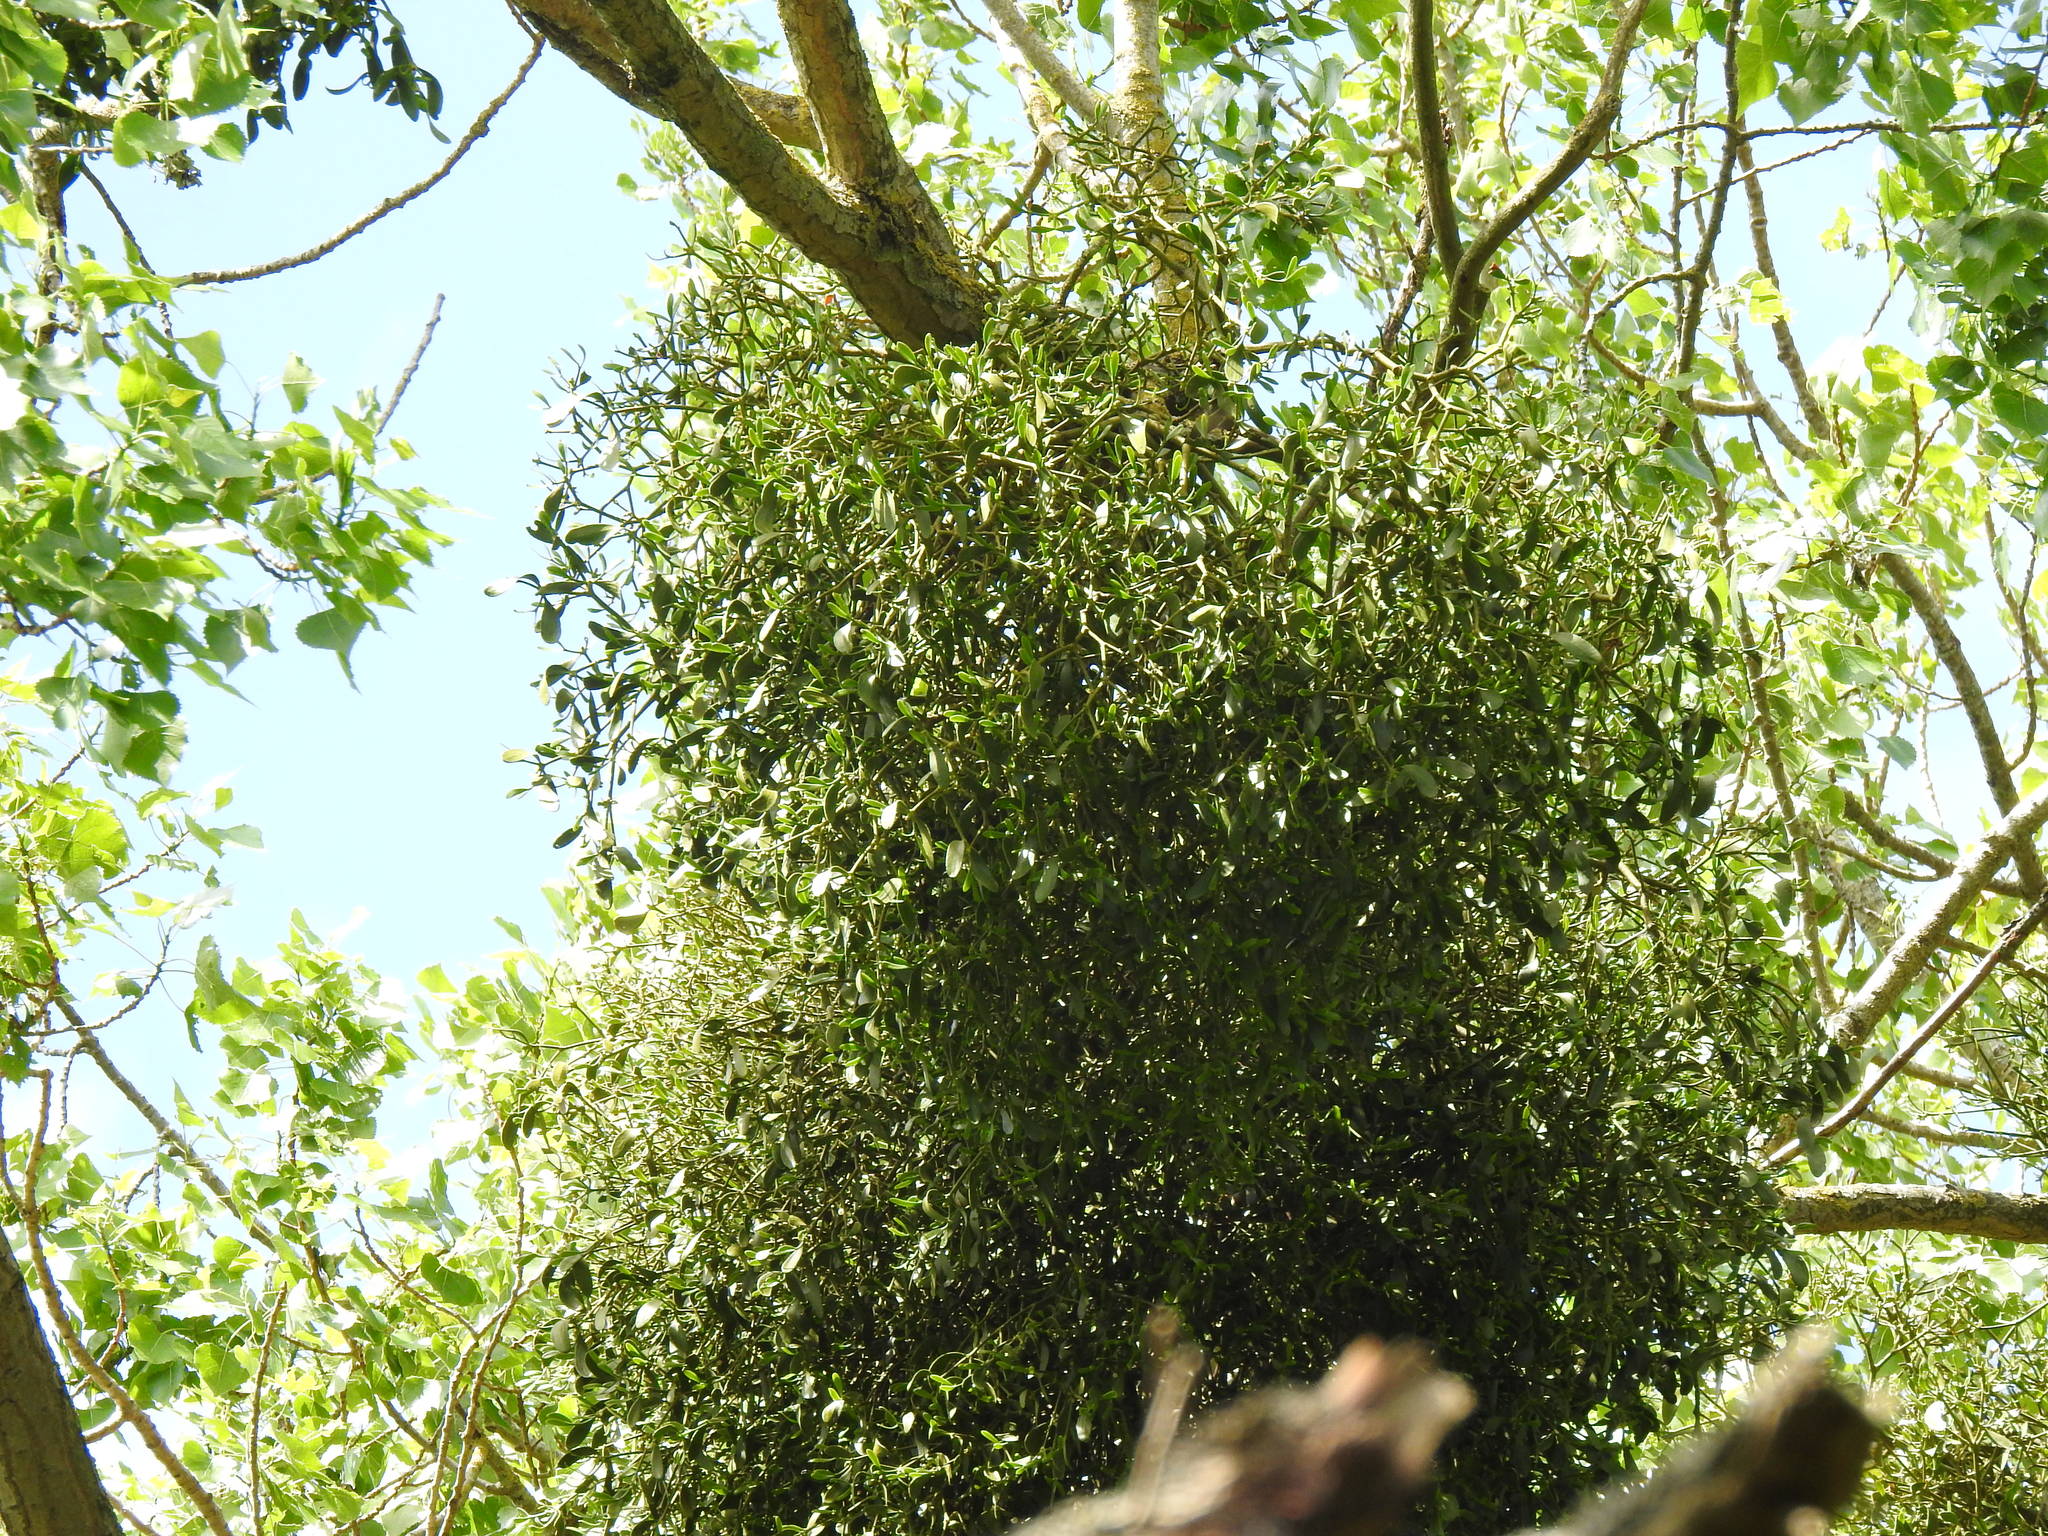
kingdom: Plantae
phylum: Tracheophyta
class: Magnoliopsida
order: Santalales
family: Viscaceae
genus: Viscum
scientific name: Viscum album
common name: Mistletoe
